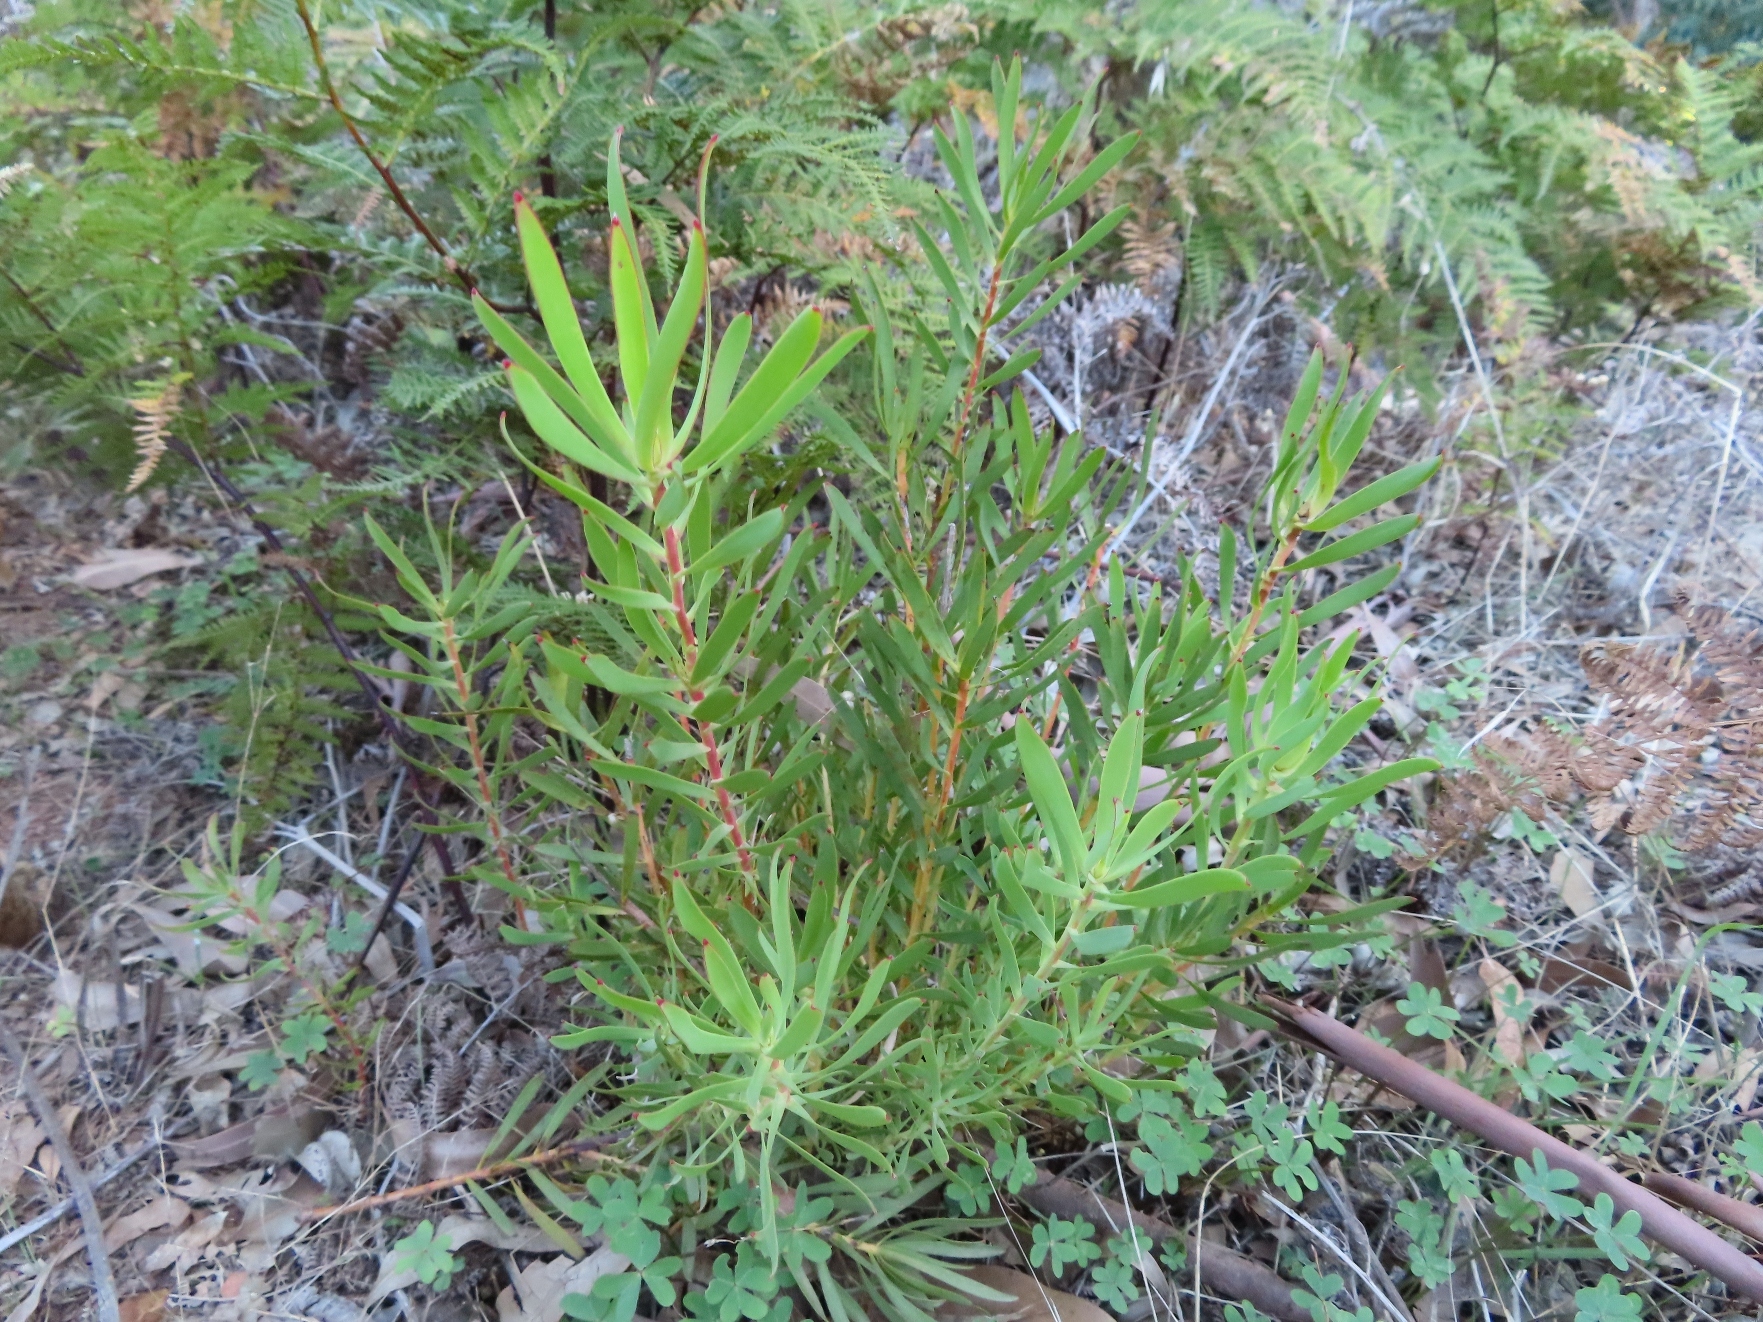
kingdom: Plantae
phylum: Tracheophyta
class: Magnoliopsida
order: Proteales
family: Proteaceae
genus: Leucadendron
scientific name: Leucadendron salignum
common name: Common sunshine conebush
